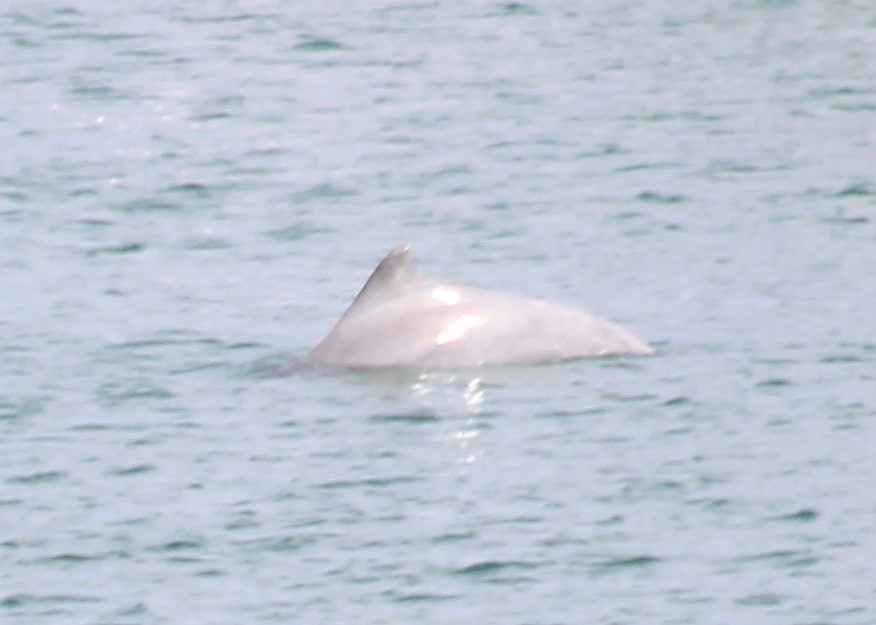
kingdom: Animalia
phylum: Chordata
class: Mammalia
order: Cetacea
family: Delphinidae
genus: Sousa
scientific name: Sousa sahulensis
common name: Australian humpback dolphin
